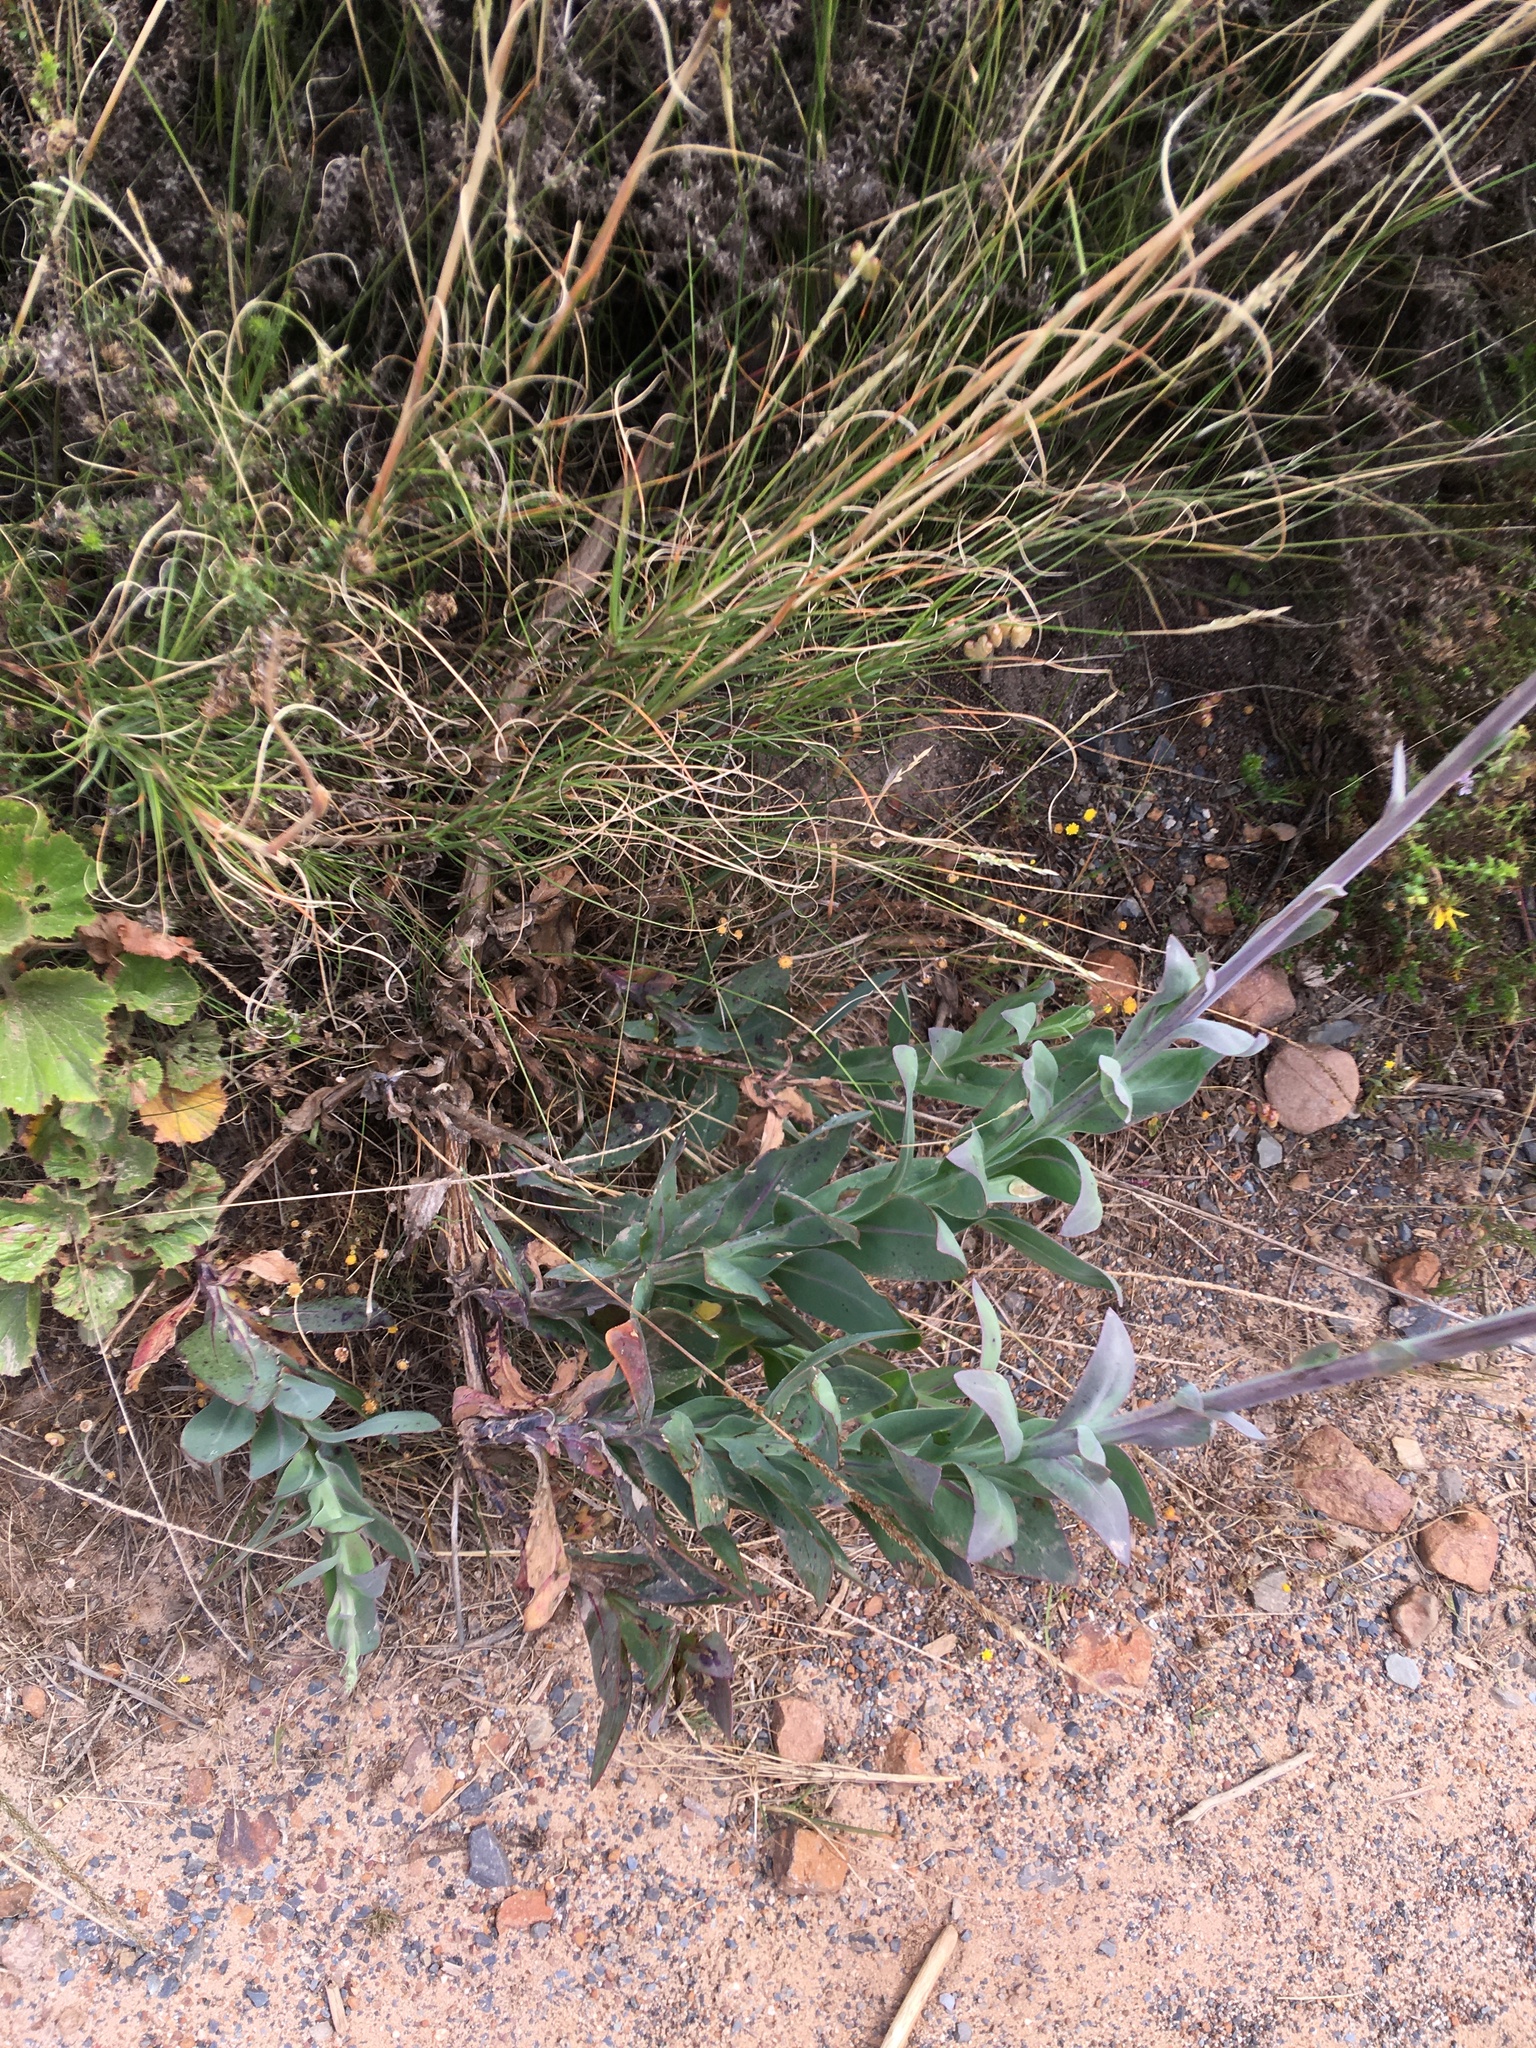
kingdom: Plantae
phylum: Tracheophyta
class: Magnoliopsida
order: Asterales
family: Asteraceae
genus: Othonna
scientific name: Othonna quinquedentata
